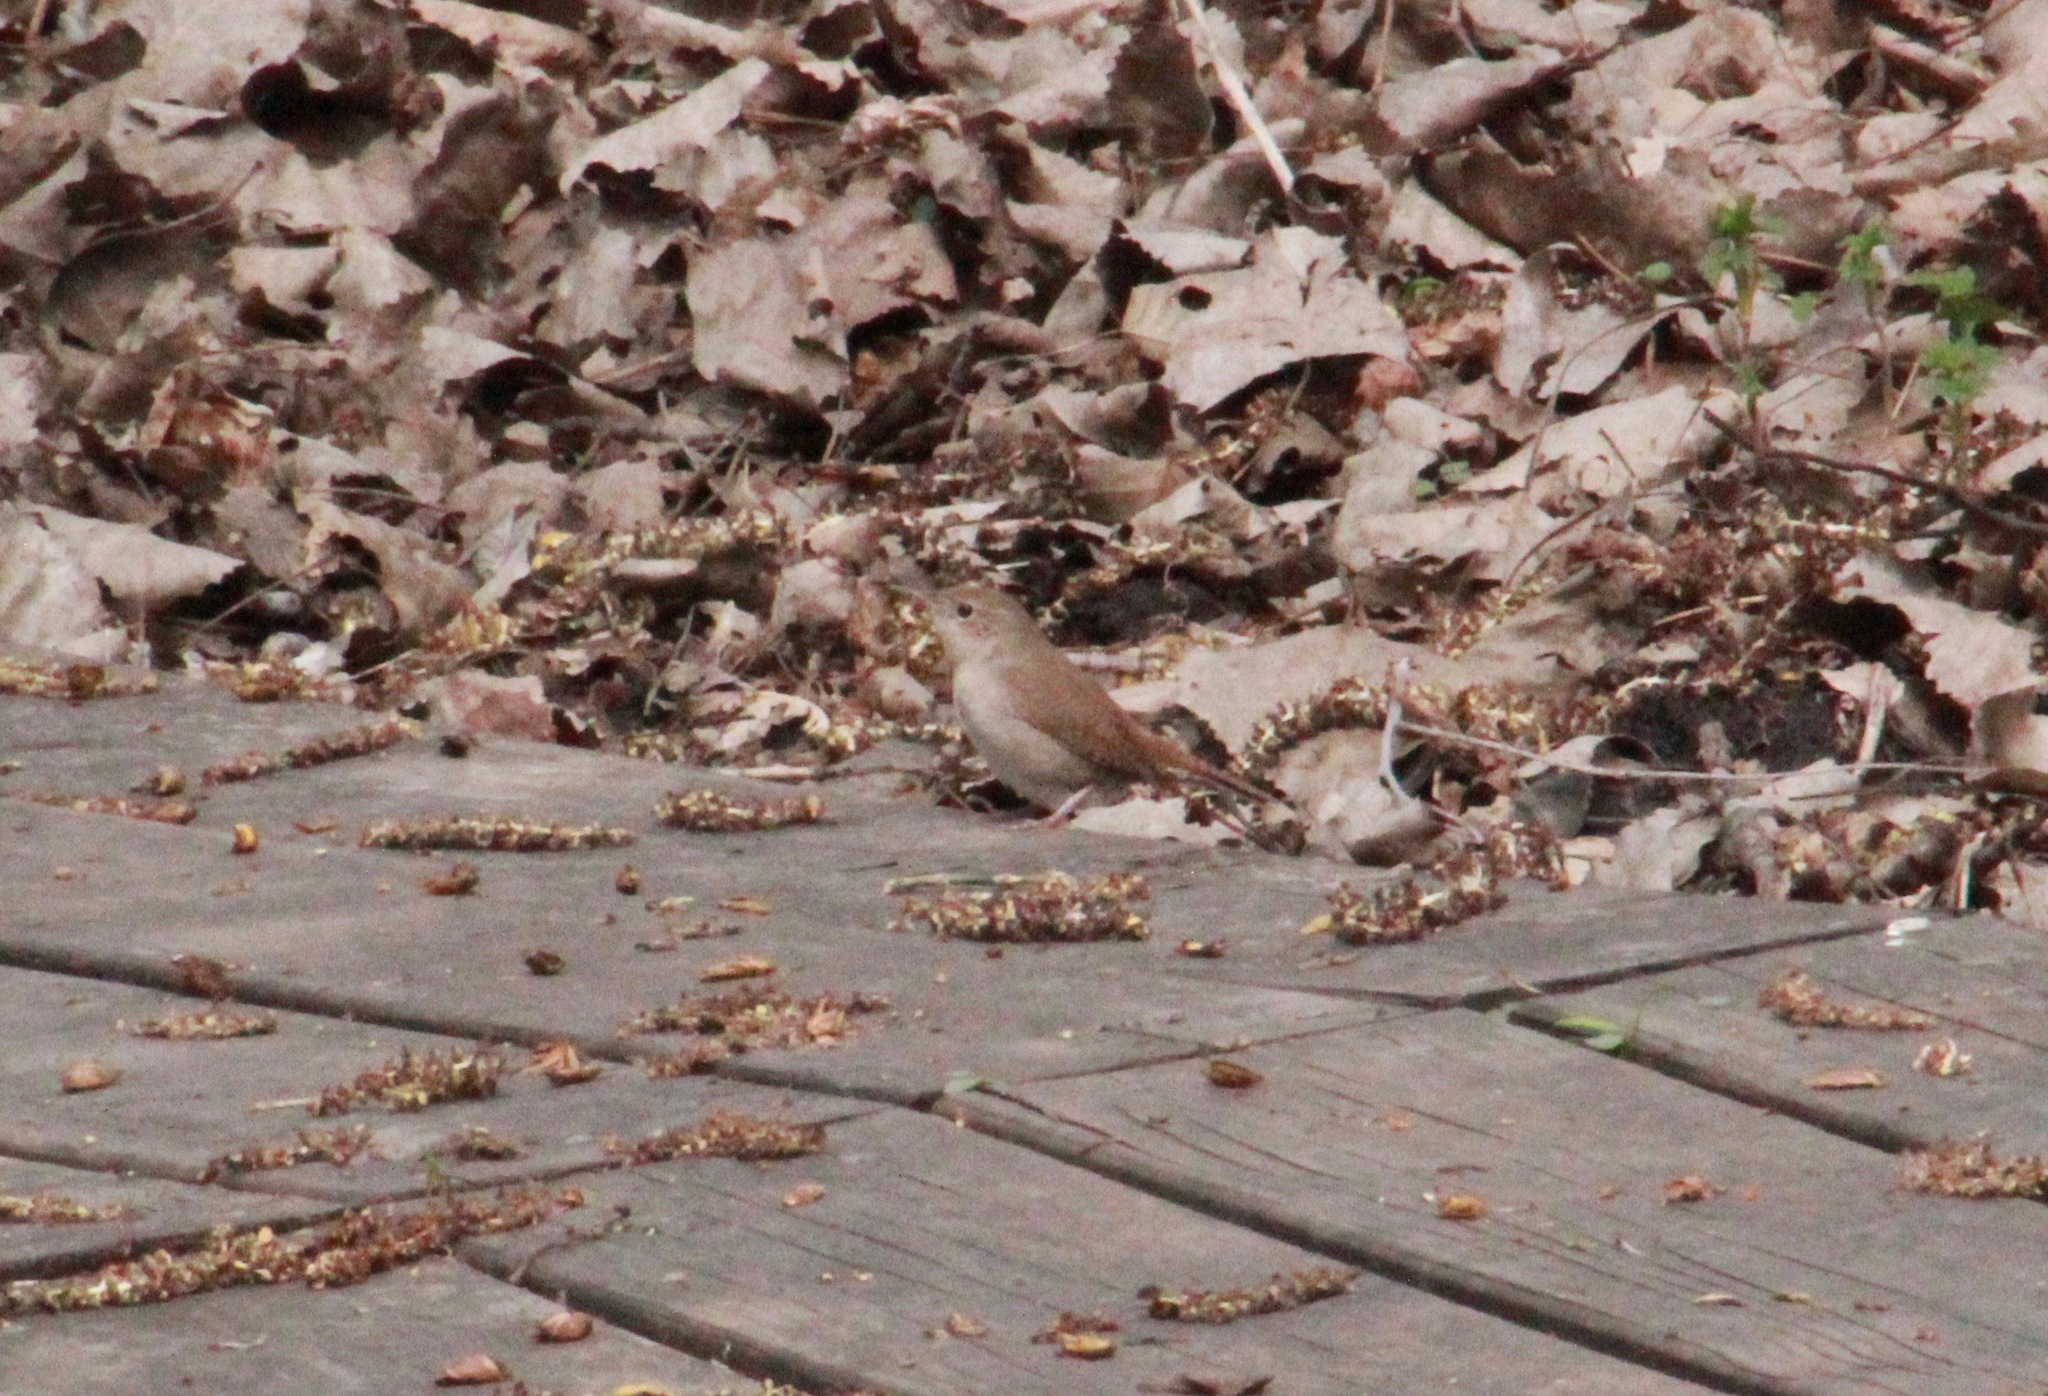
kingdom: Animalia
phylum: Chordata
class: Aves
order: Passeriformes
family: Troglodytidae
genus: Troglodytes
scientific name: Troglodytes aedon
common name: House wren
